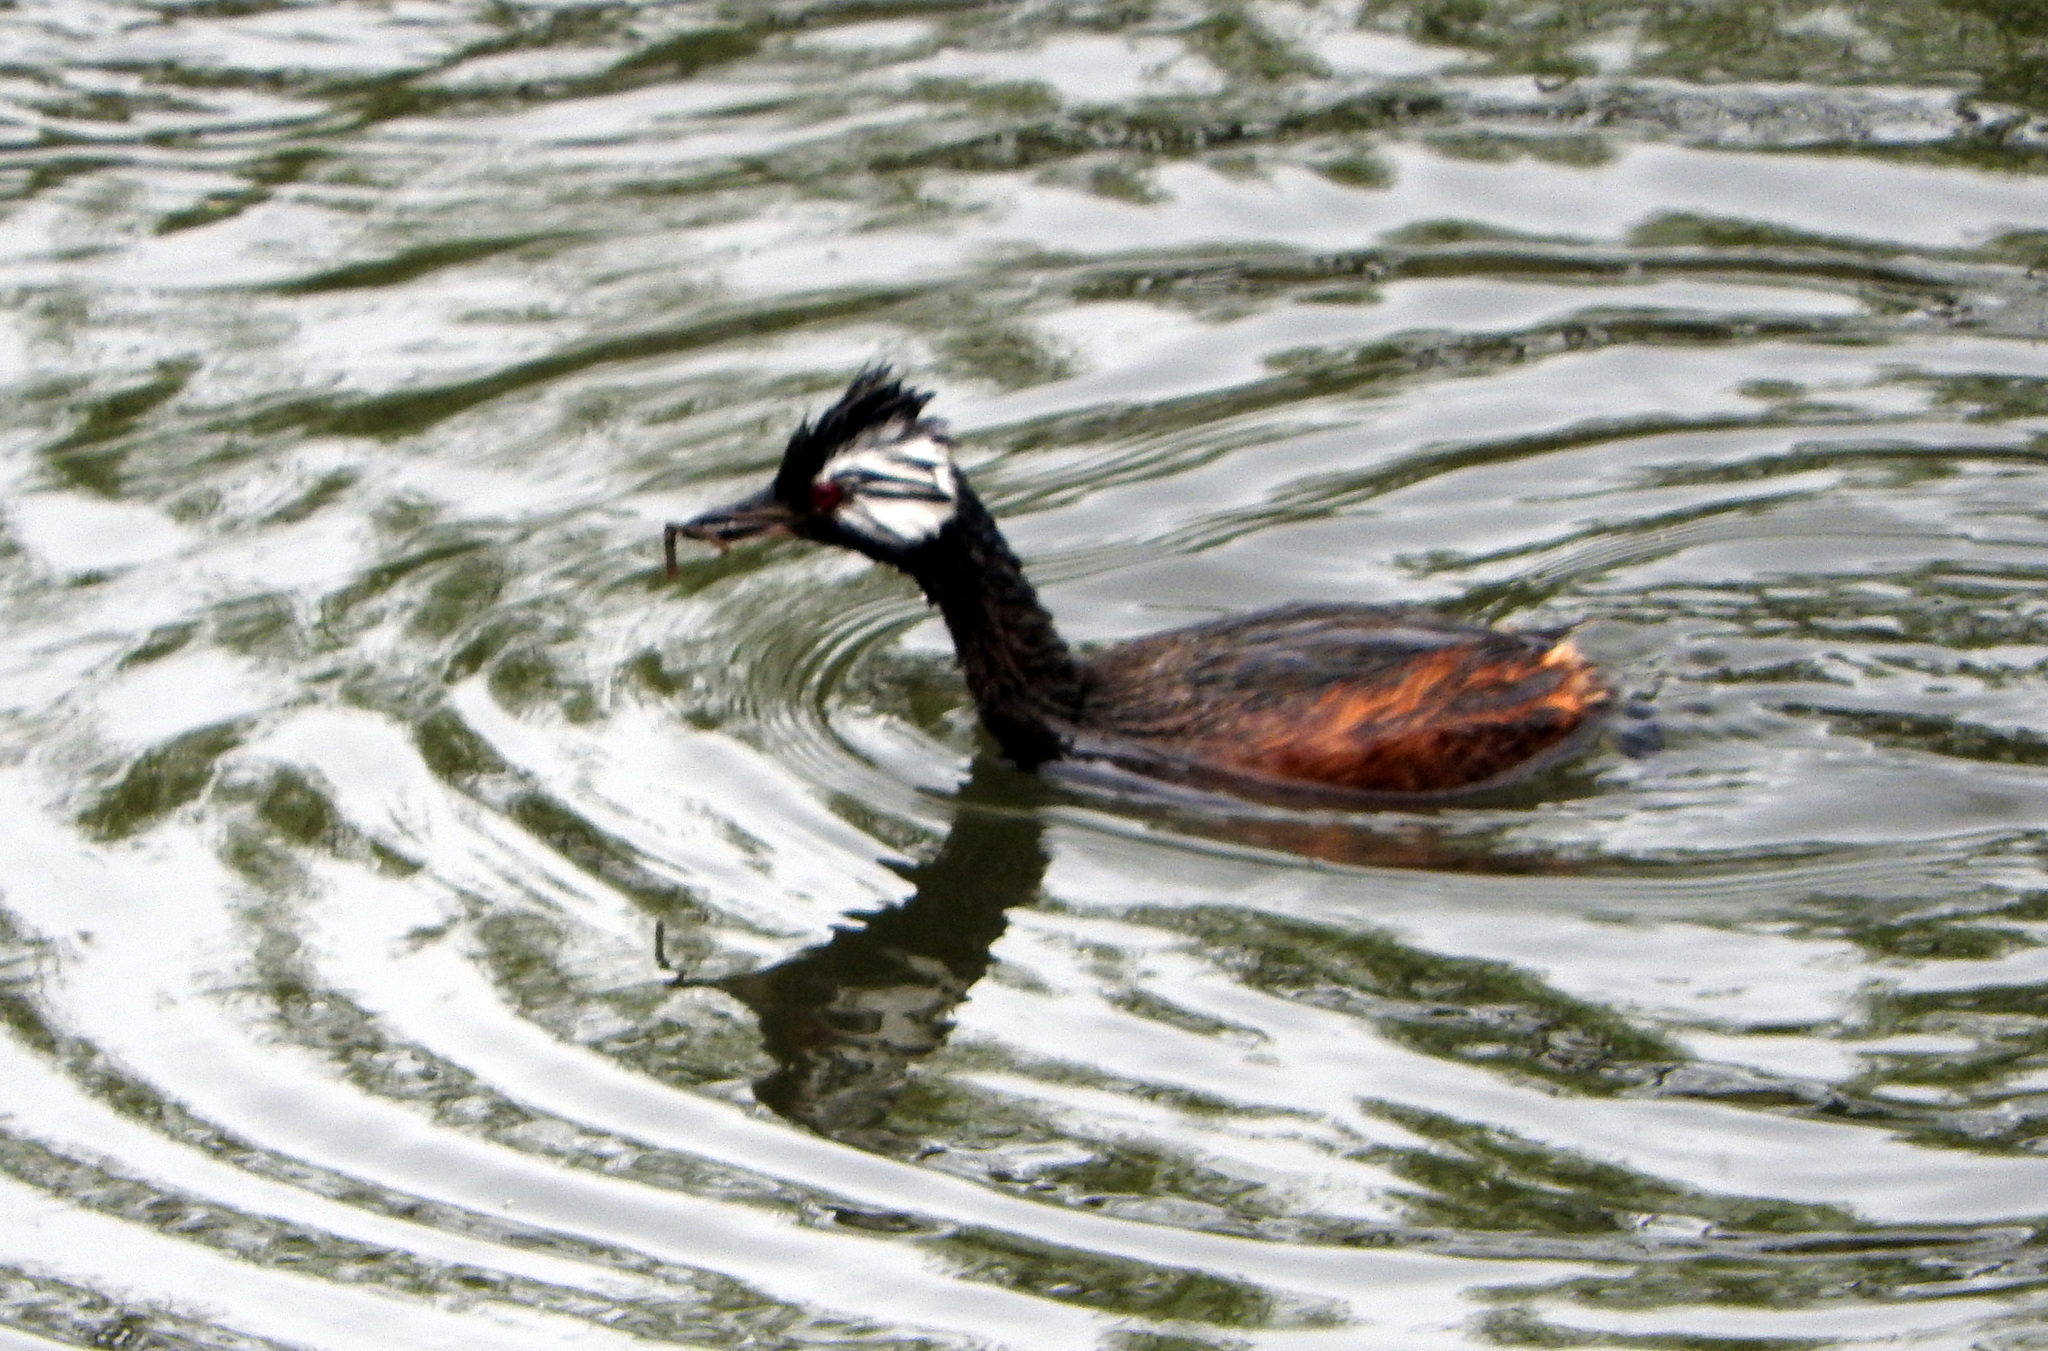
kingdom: Animalia
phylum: Chordata
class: Aves
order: Podicipediformes
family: Podicipedidae
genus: Rollandia
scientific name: Rollandia rolland
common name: White-tufted grebe
